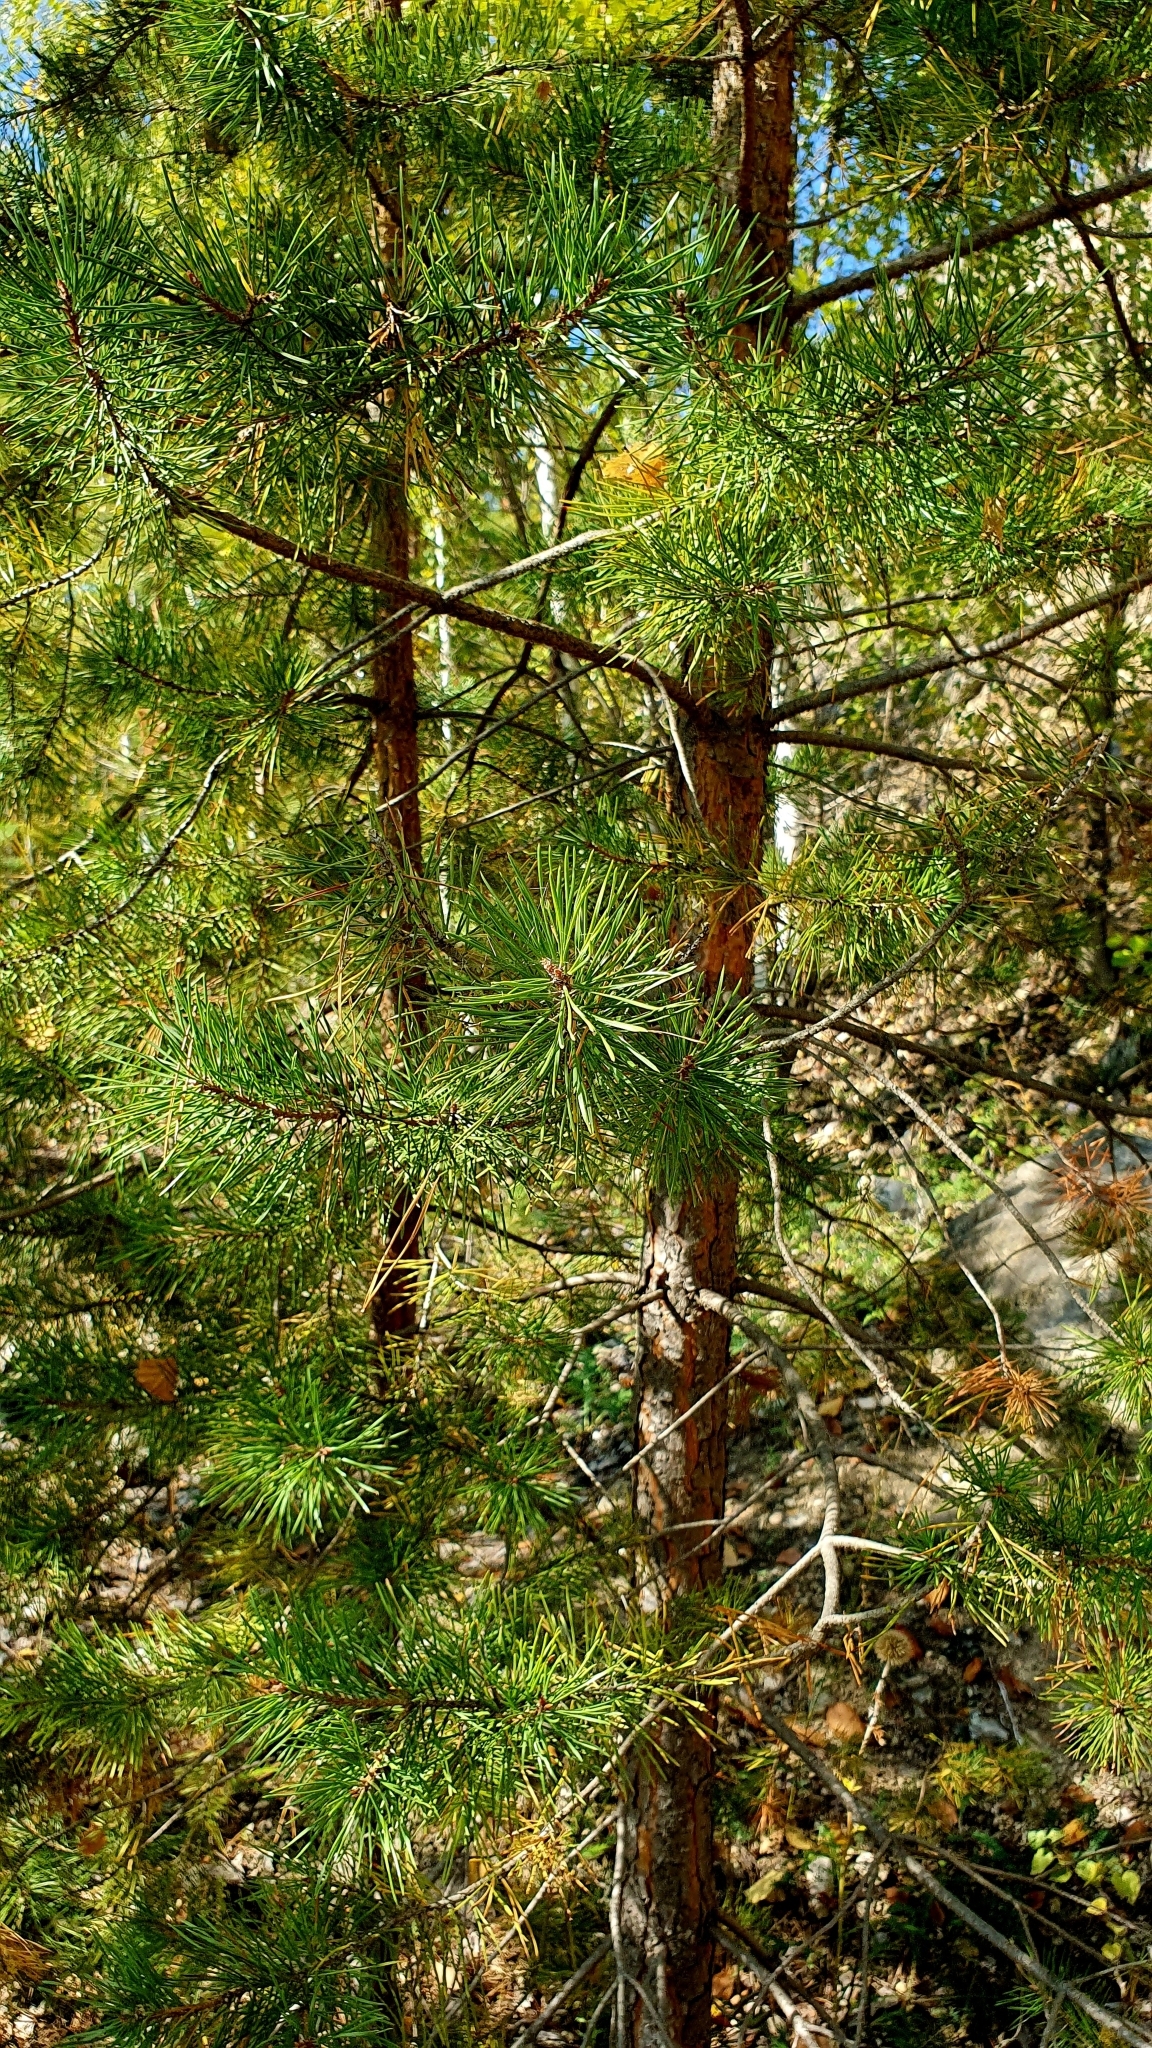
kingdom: Plantae
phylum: Tracheophyta
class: Pinopsida
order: Pinales
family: Pinaceae
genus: Pinus
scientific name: Pinus sylvestris
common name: Scots pine
